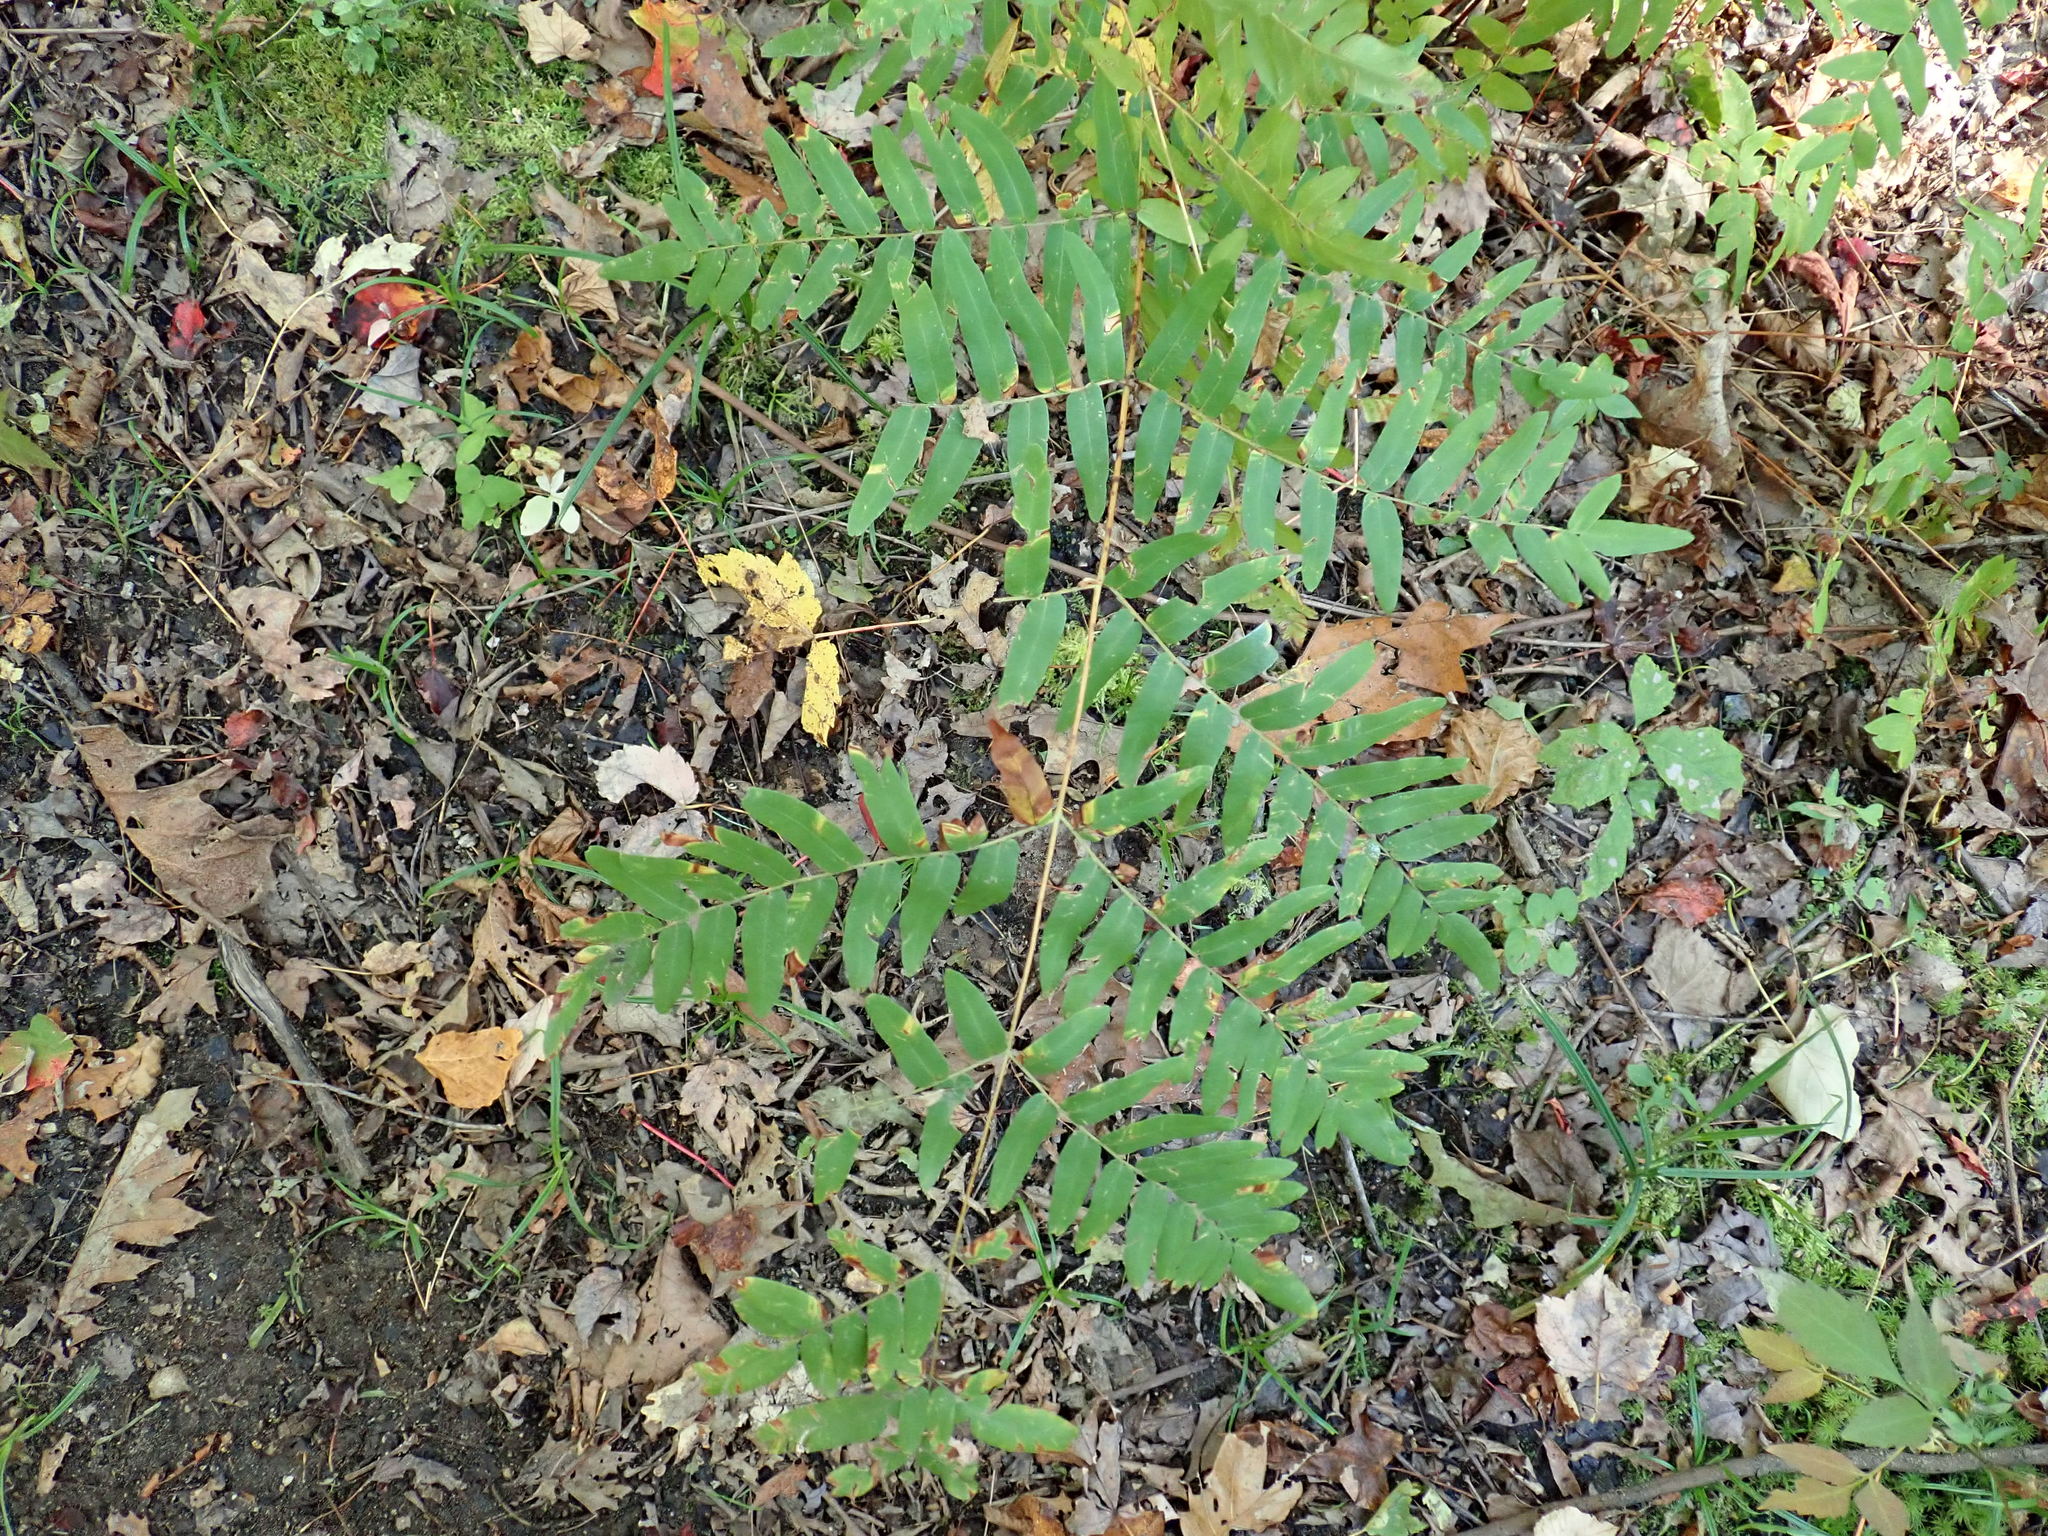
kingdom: Plantae
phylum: Tracheophyta
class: Polypodiopsida
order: Osmundales
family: Osmundaceae
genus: Osmunda
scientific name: Osmunda spectabilis
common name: American royal fern
